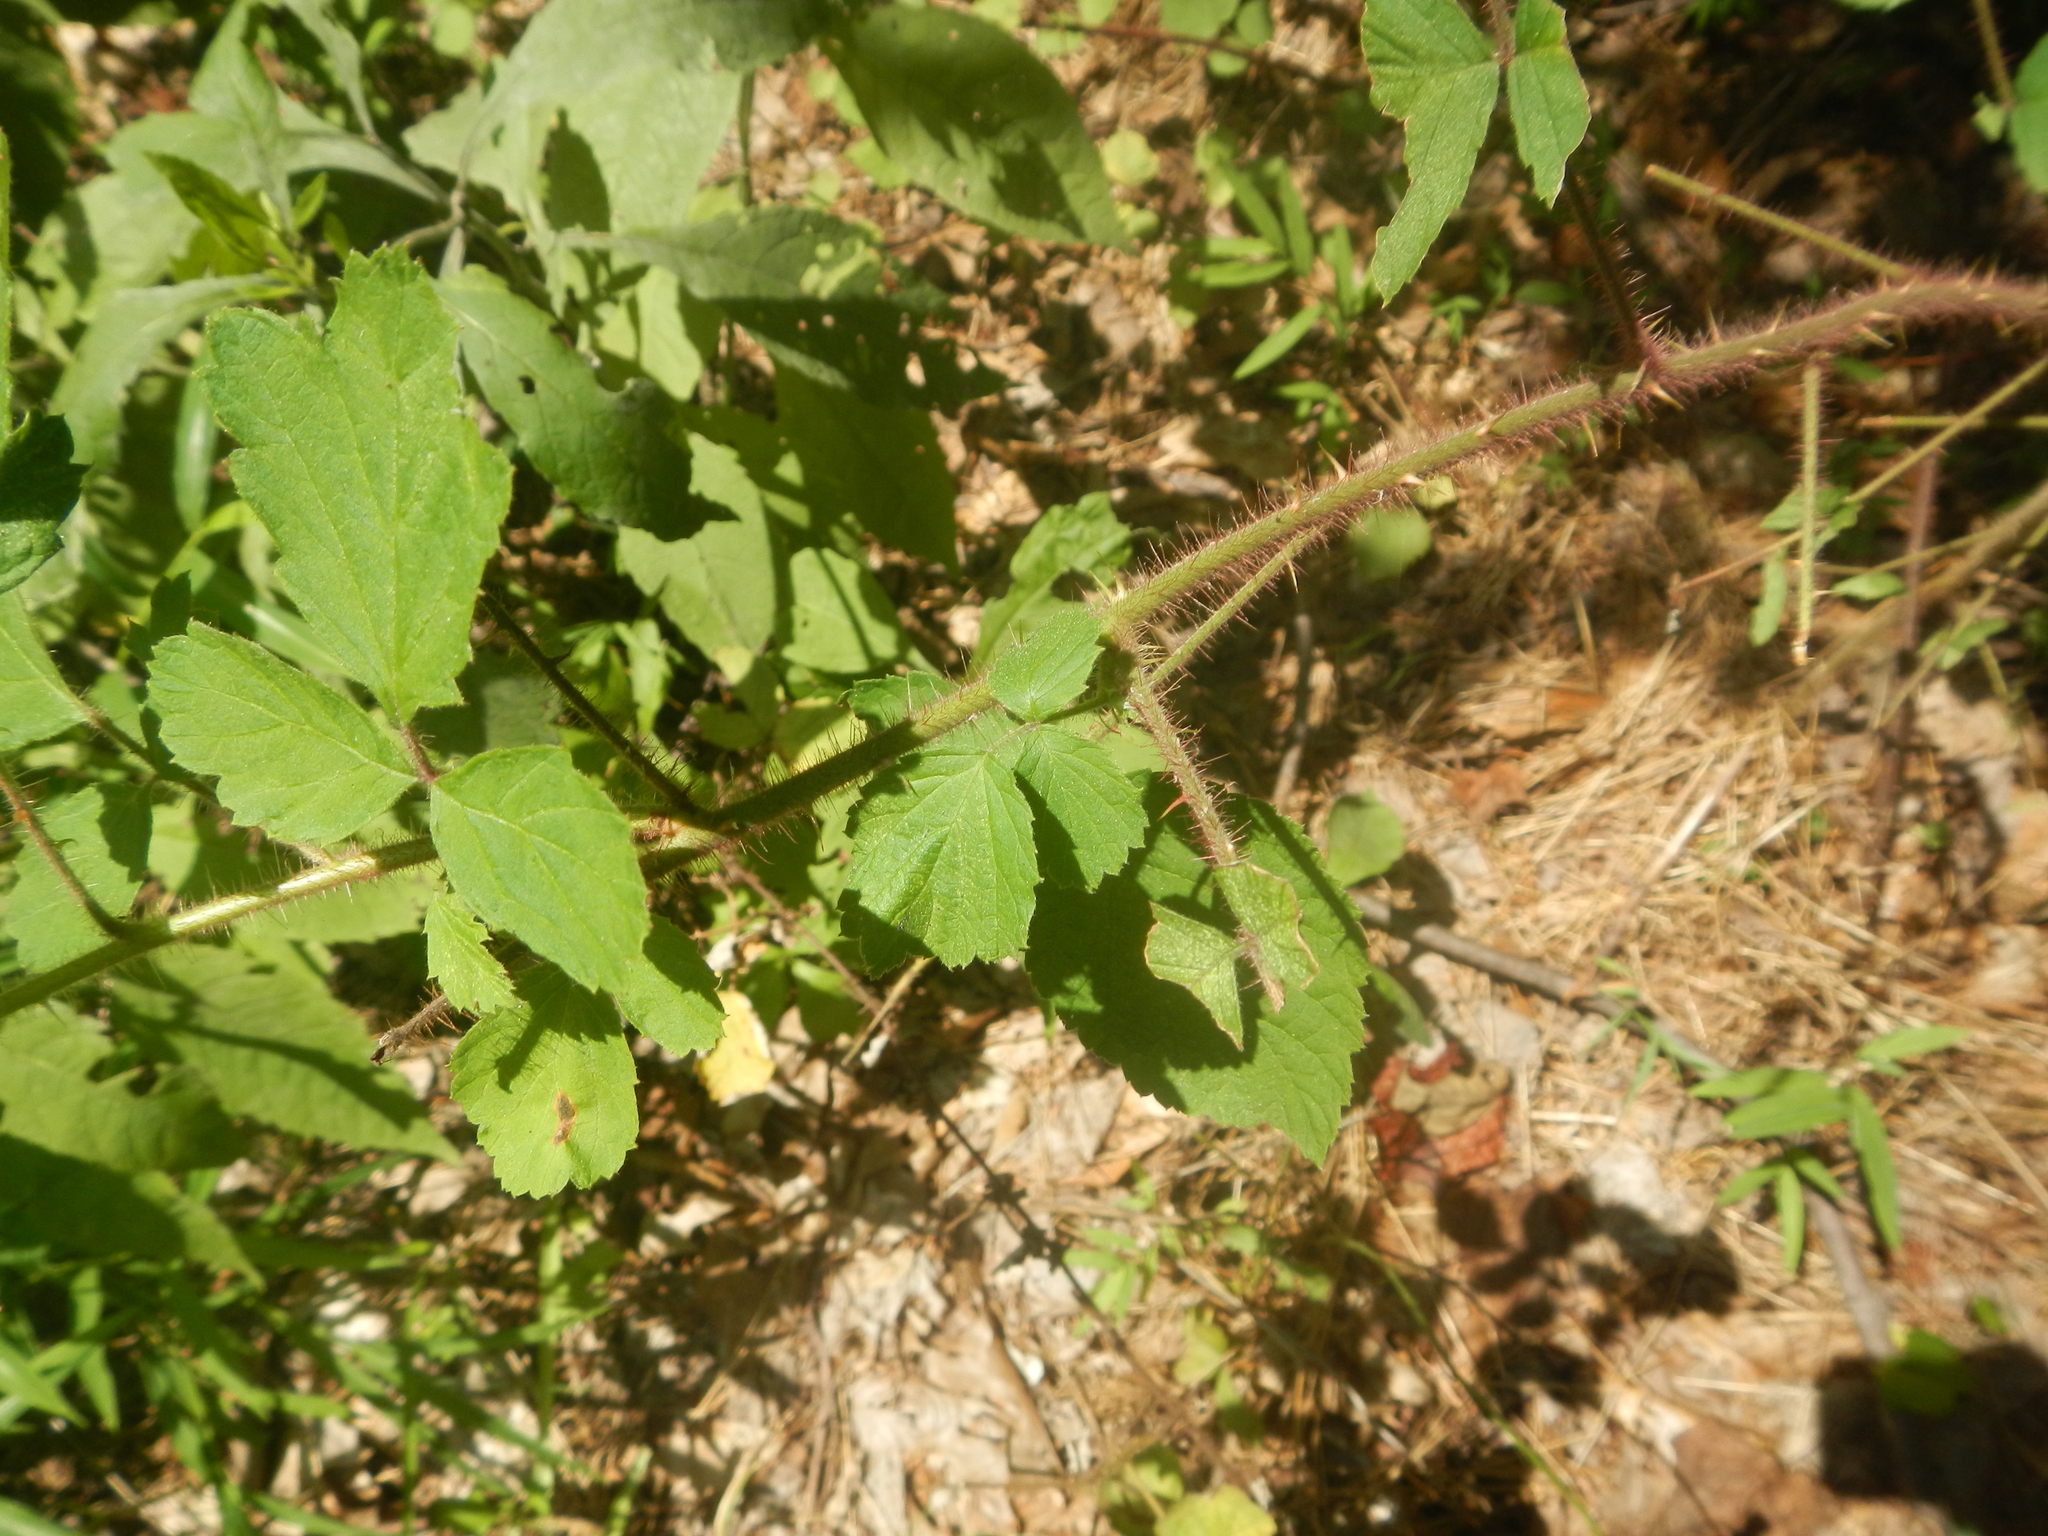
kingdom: Plantae
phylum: Tracheophyta
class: Magnoliopsida
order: Rosales
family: Rosaceae
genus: Rubus
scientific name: Rubus phoenicolasius
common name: Japanese wineberry
